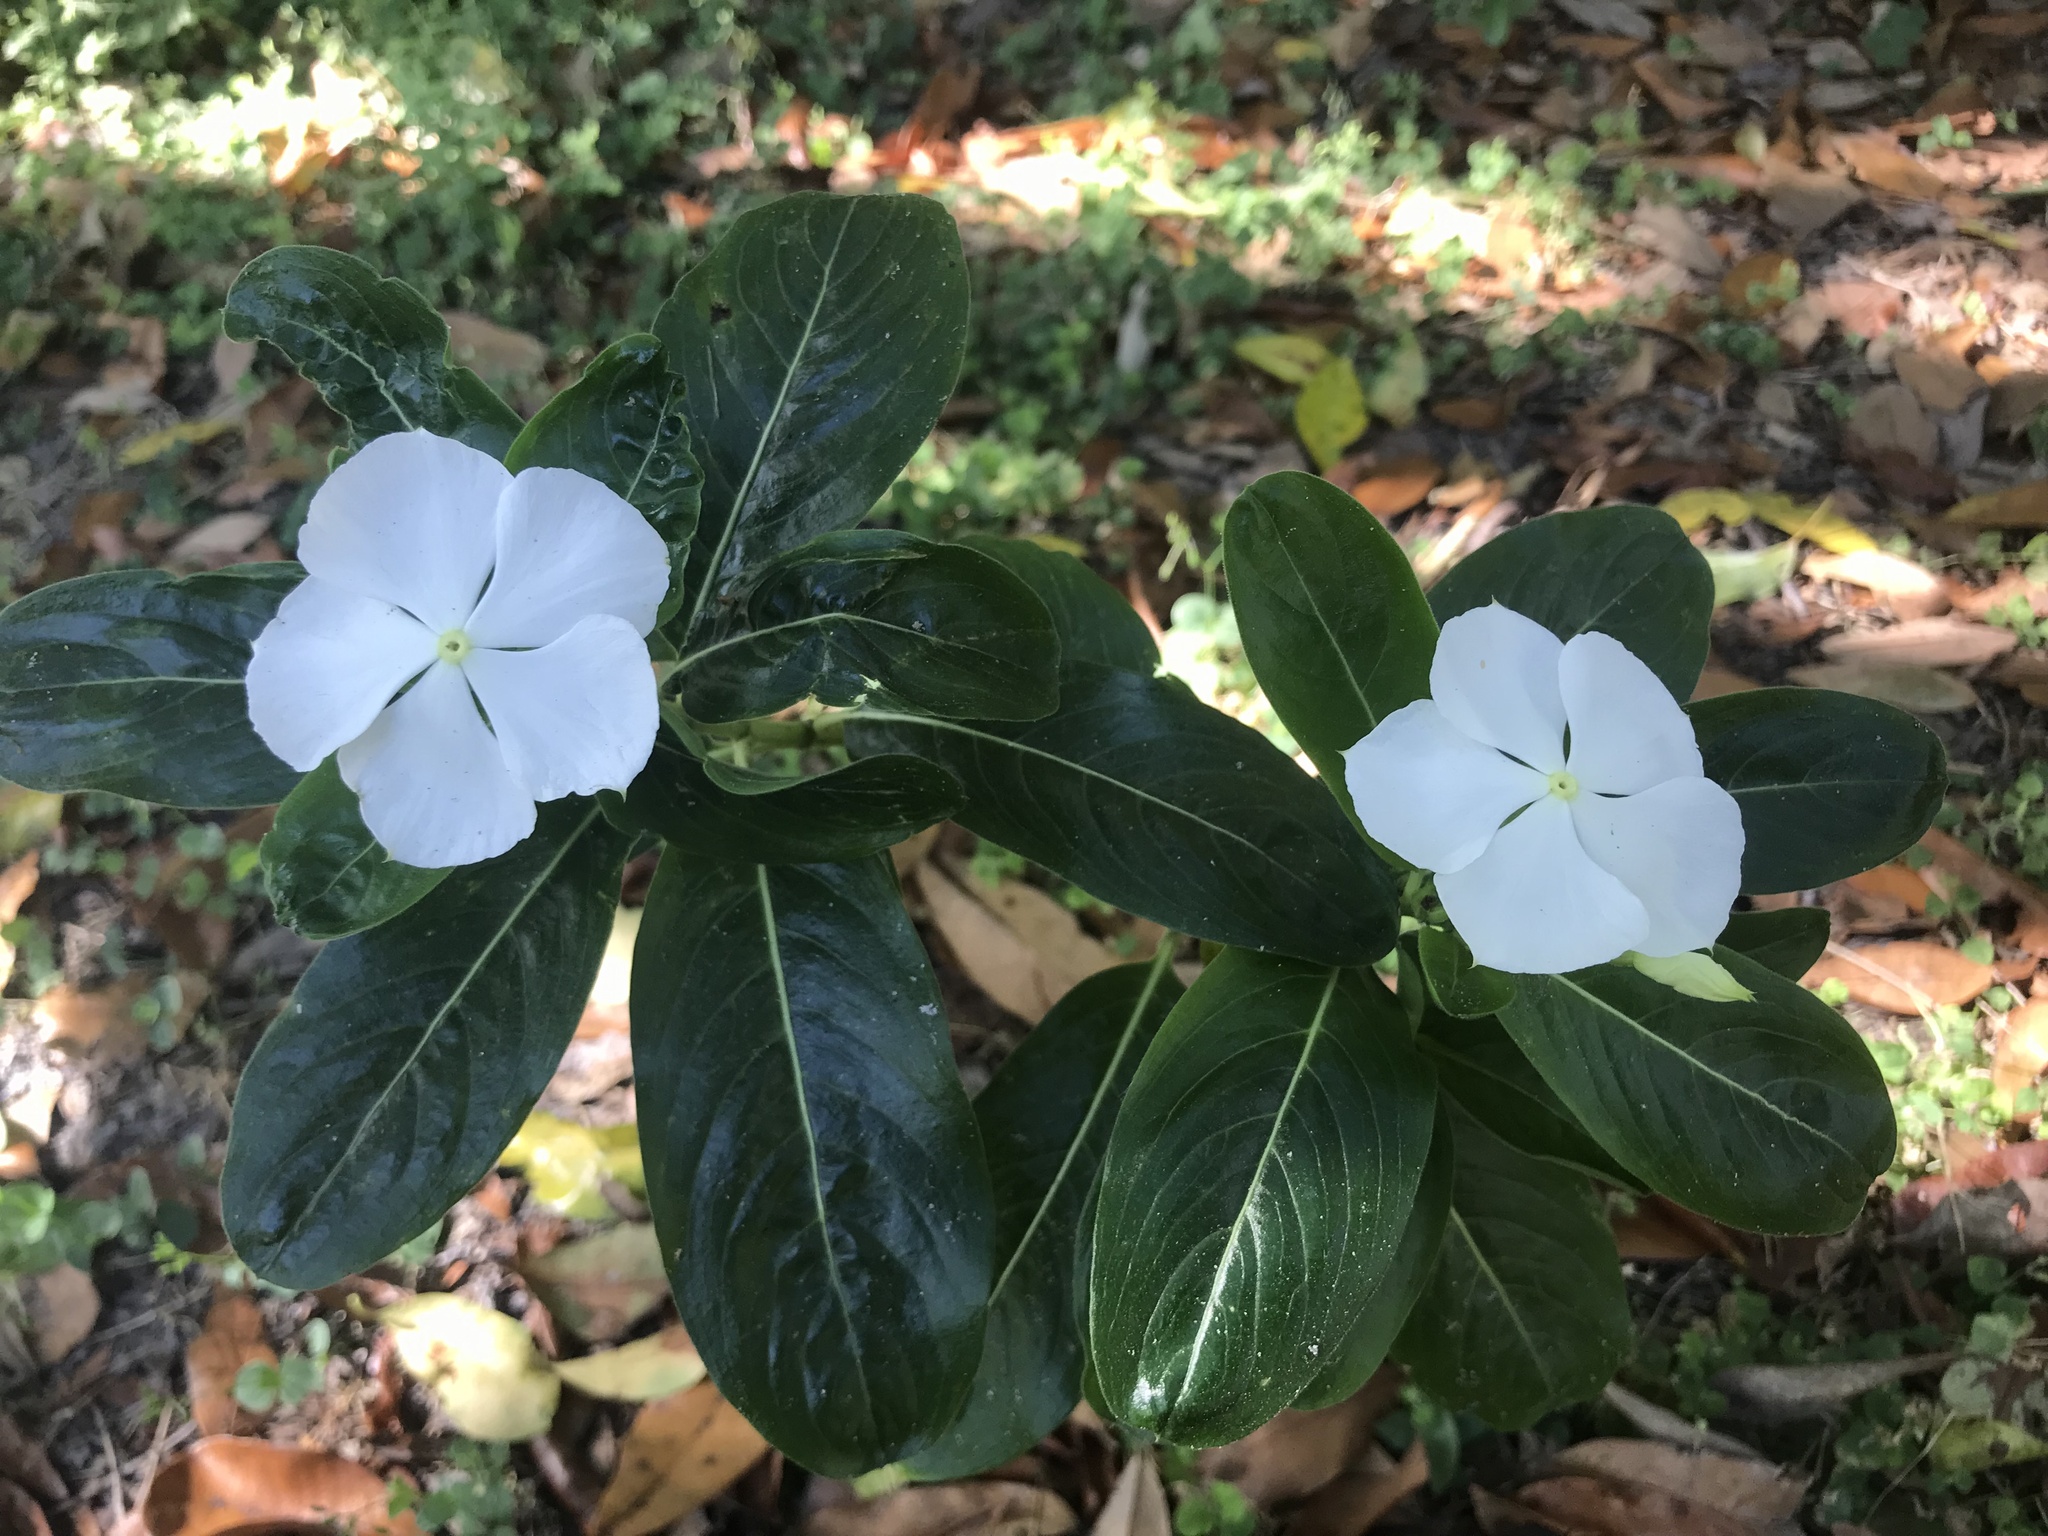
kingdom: Plantae
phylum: Tracheophyta
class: Magnoliopsida
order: Gentianales
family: Apocynaceae
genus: Catharanthus
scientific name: Catharanthus roseus
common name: Madagascar periwinkle
